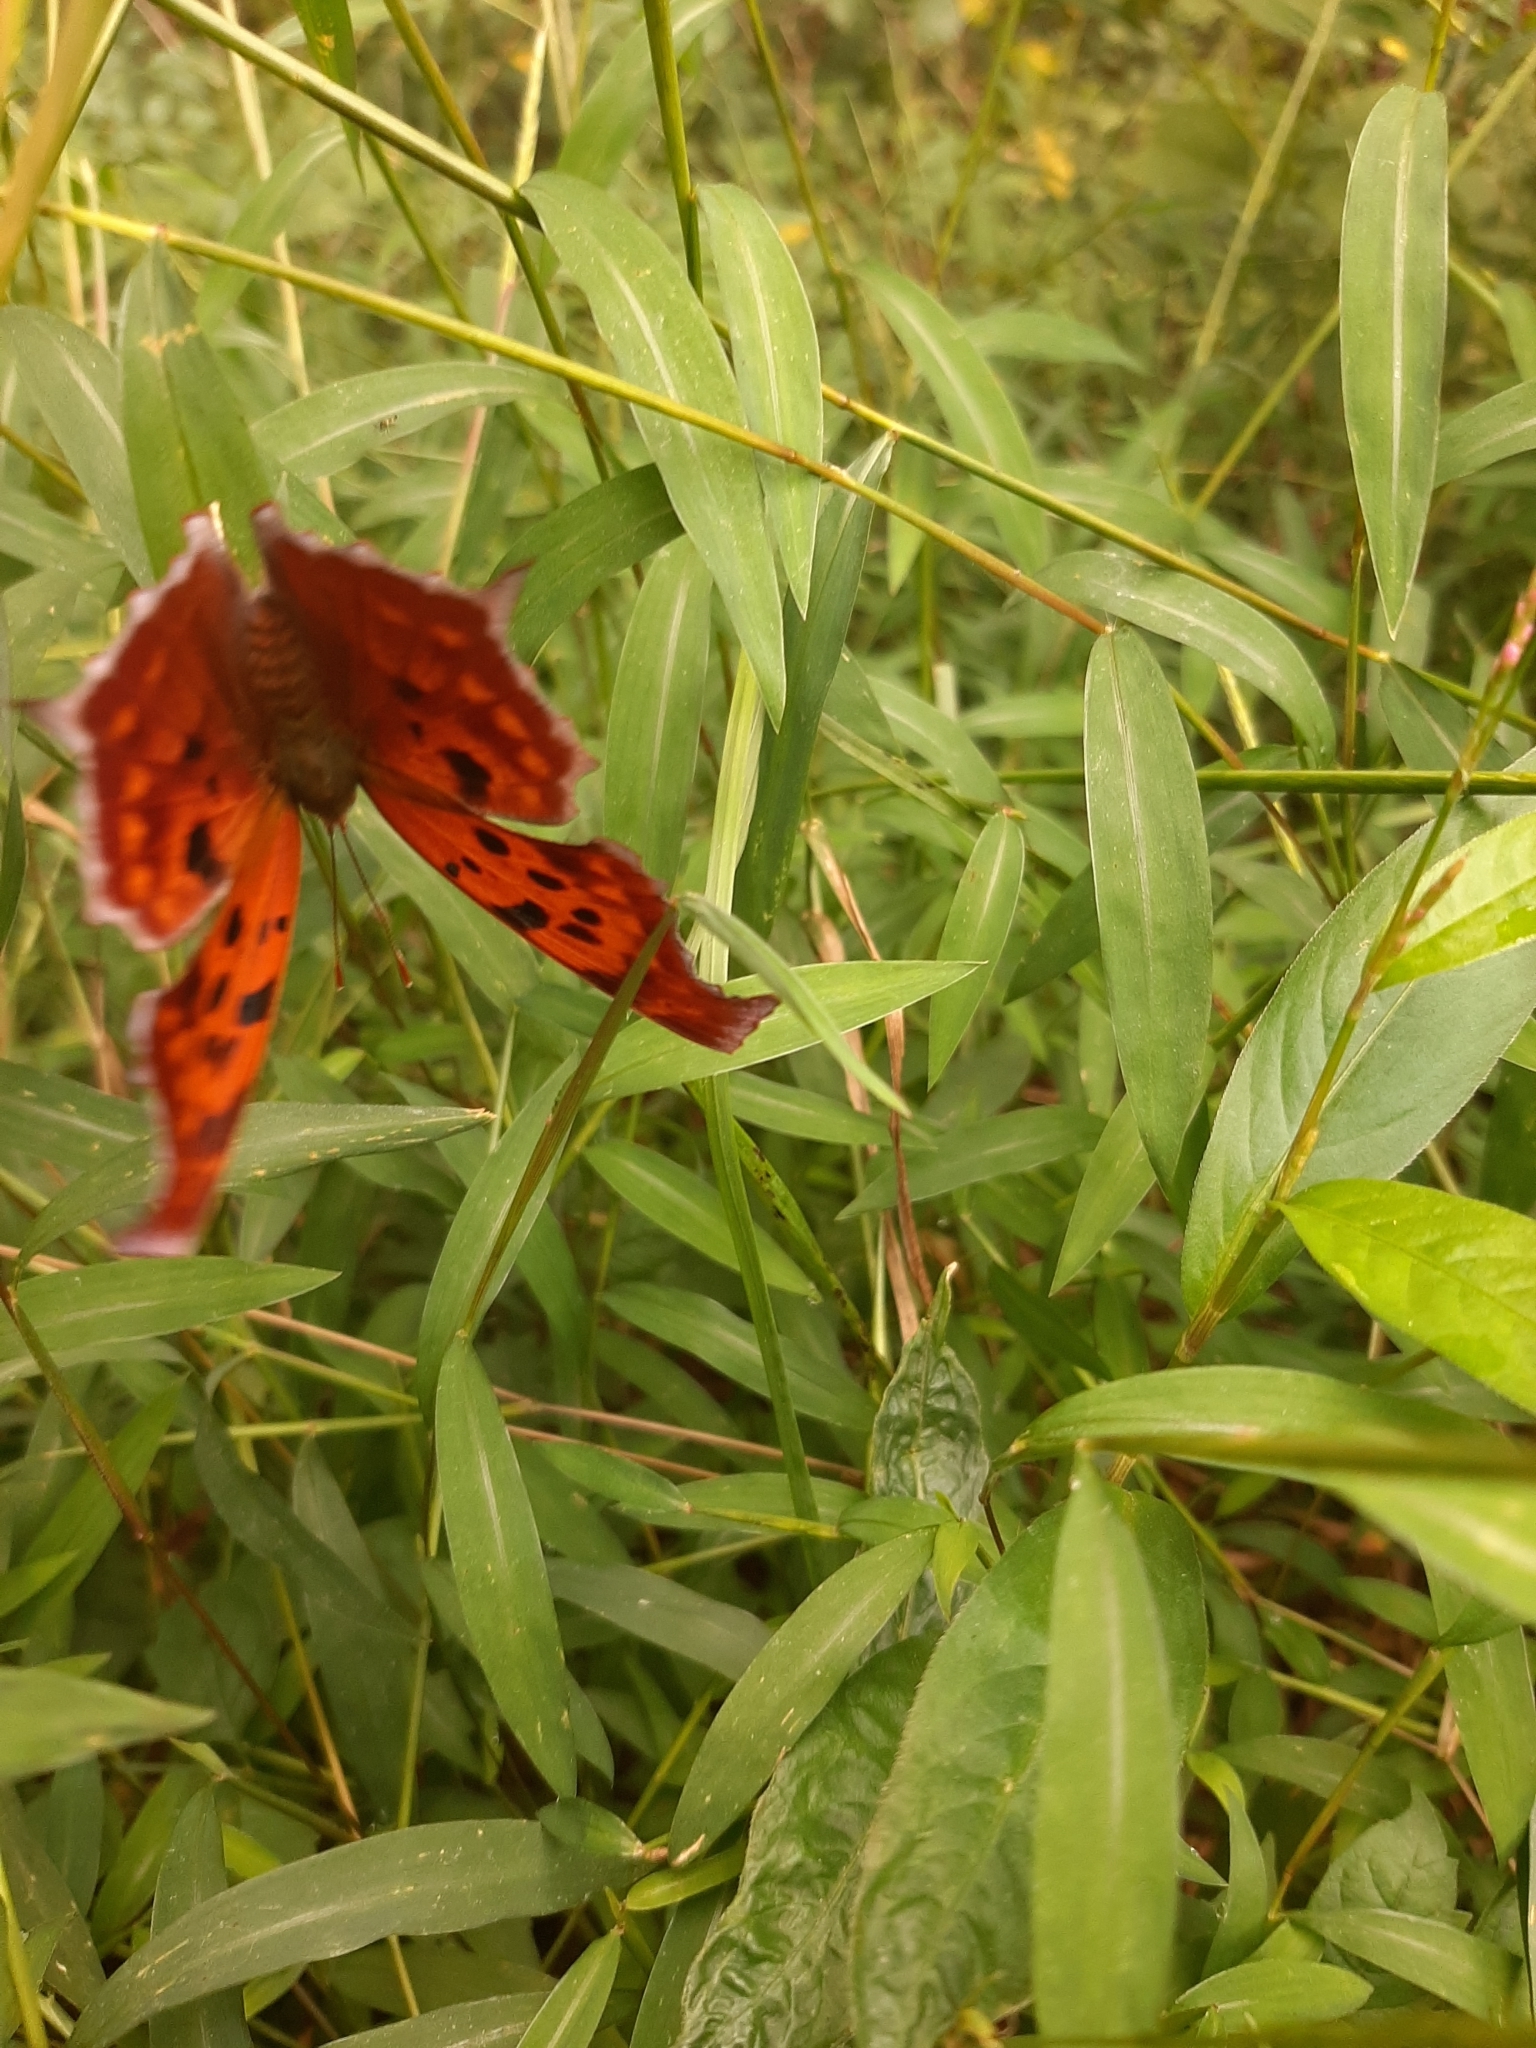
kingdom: Animalia
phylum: Arthropoda
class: Insecta
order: Lepidoptera
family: Nymphalidae
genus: Polygonia
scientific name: Polygonia interrogationis
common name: Question mark
